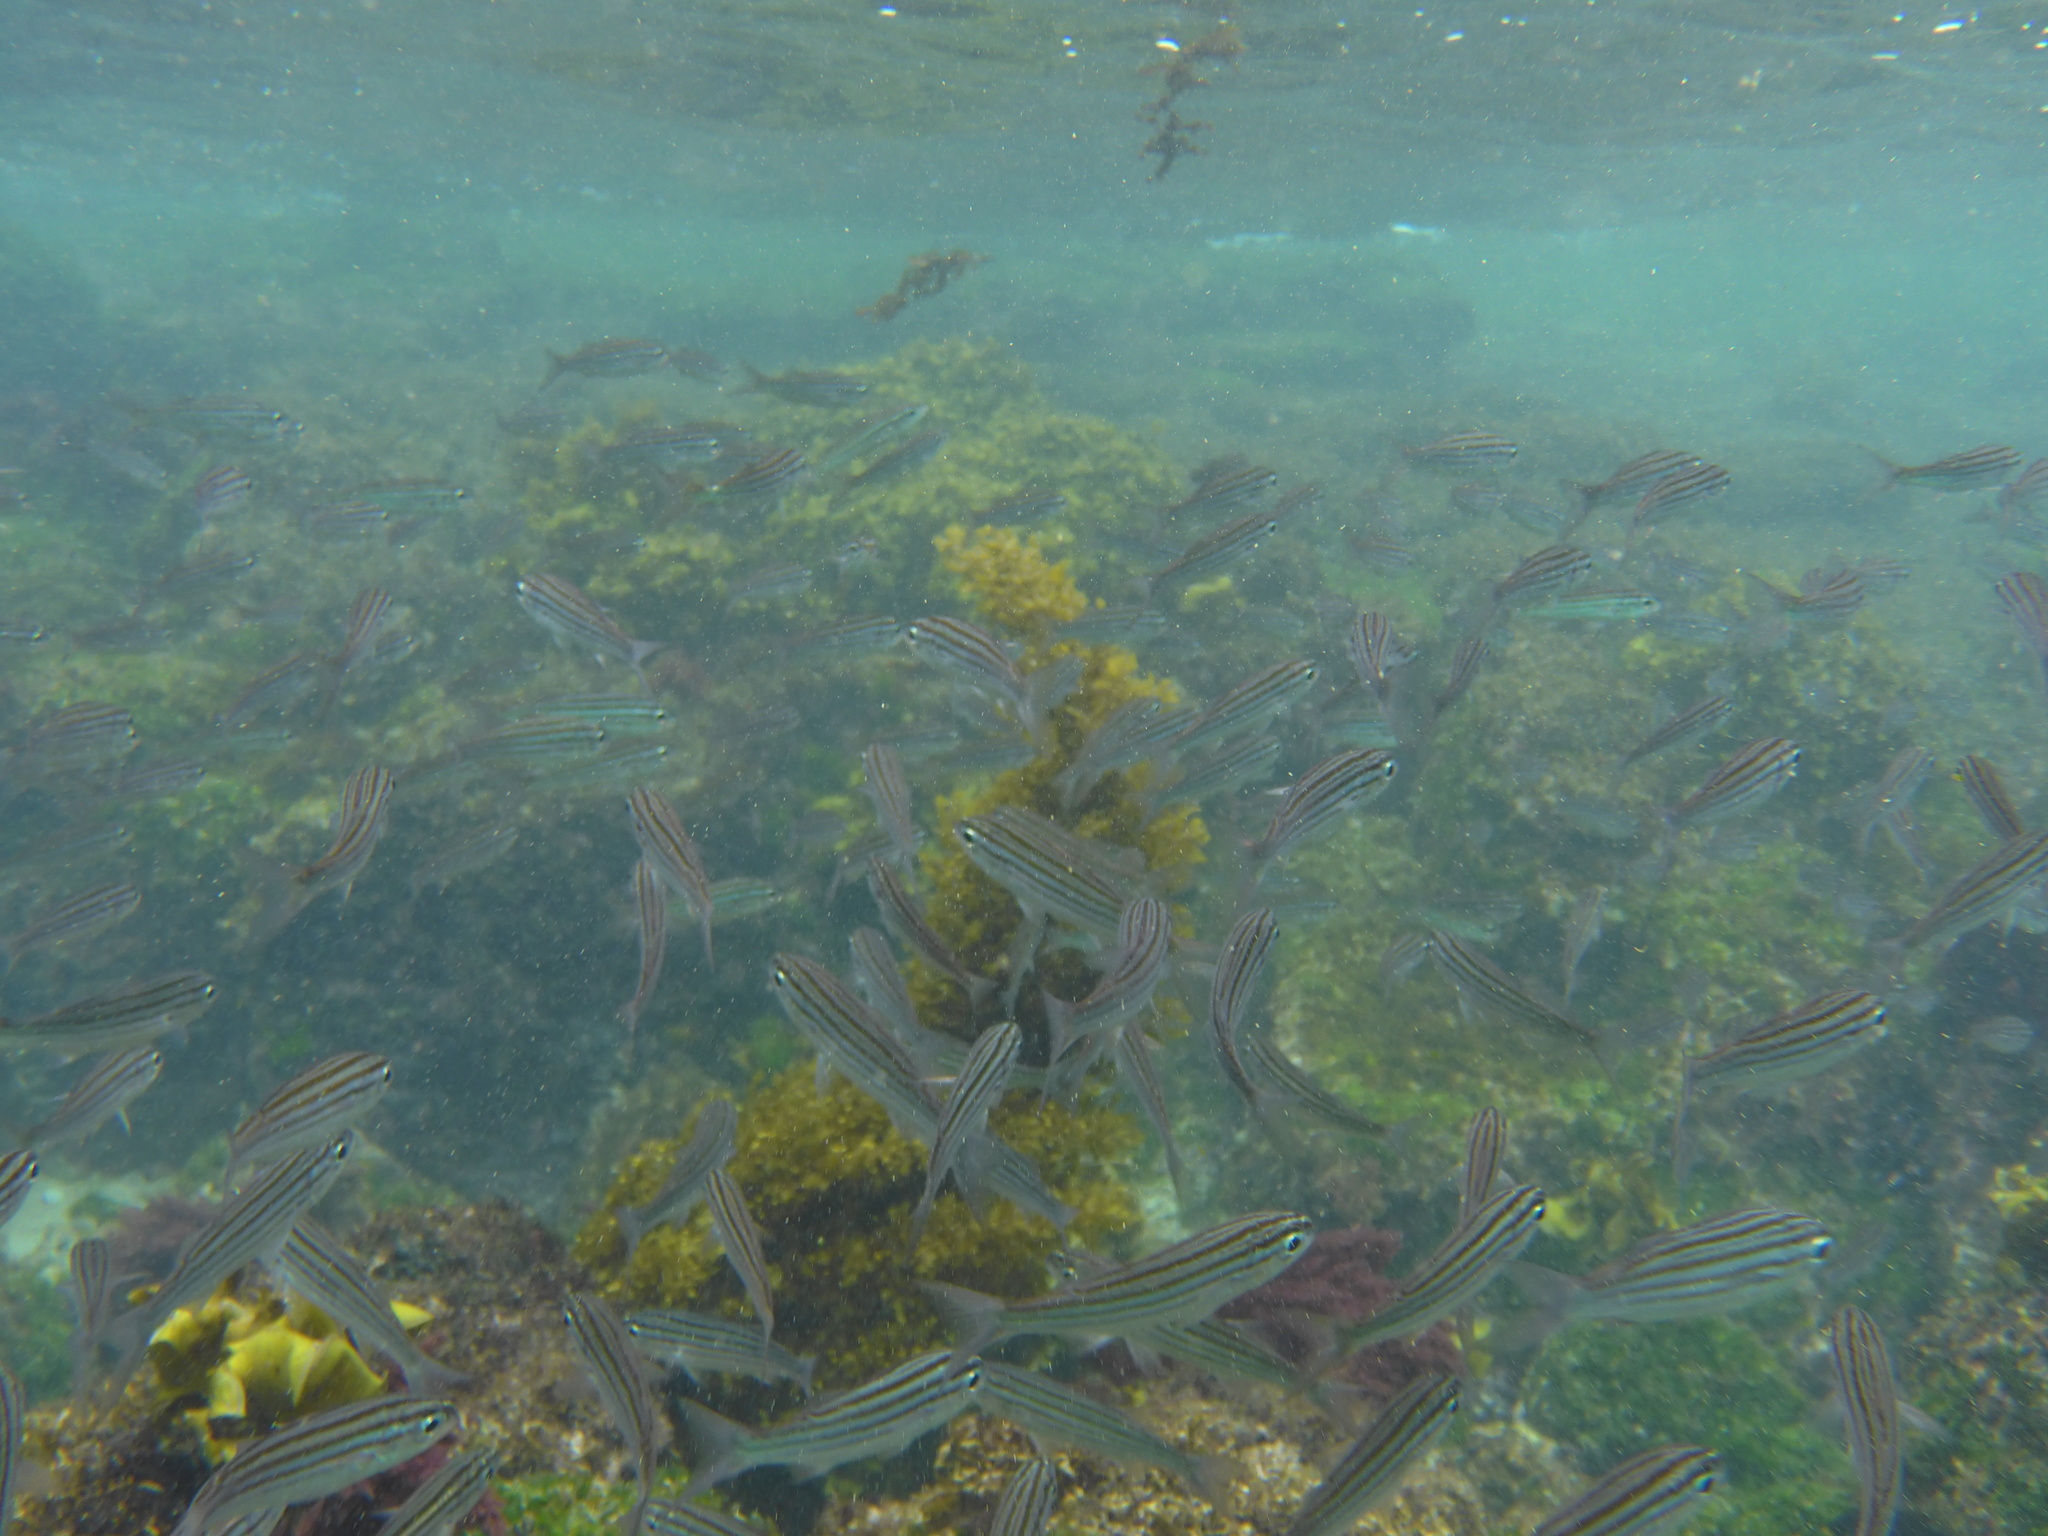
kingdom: Animalia
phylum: Chordata
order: Perciformes
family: Haemulidae
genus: Xenocys
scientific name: Xenocys jessiae
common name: Black-striped salema
